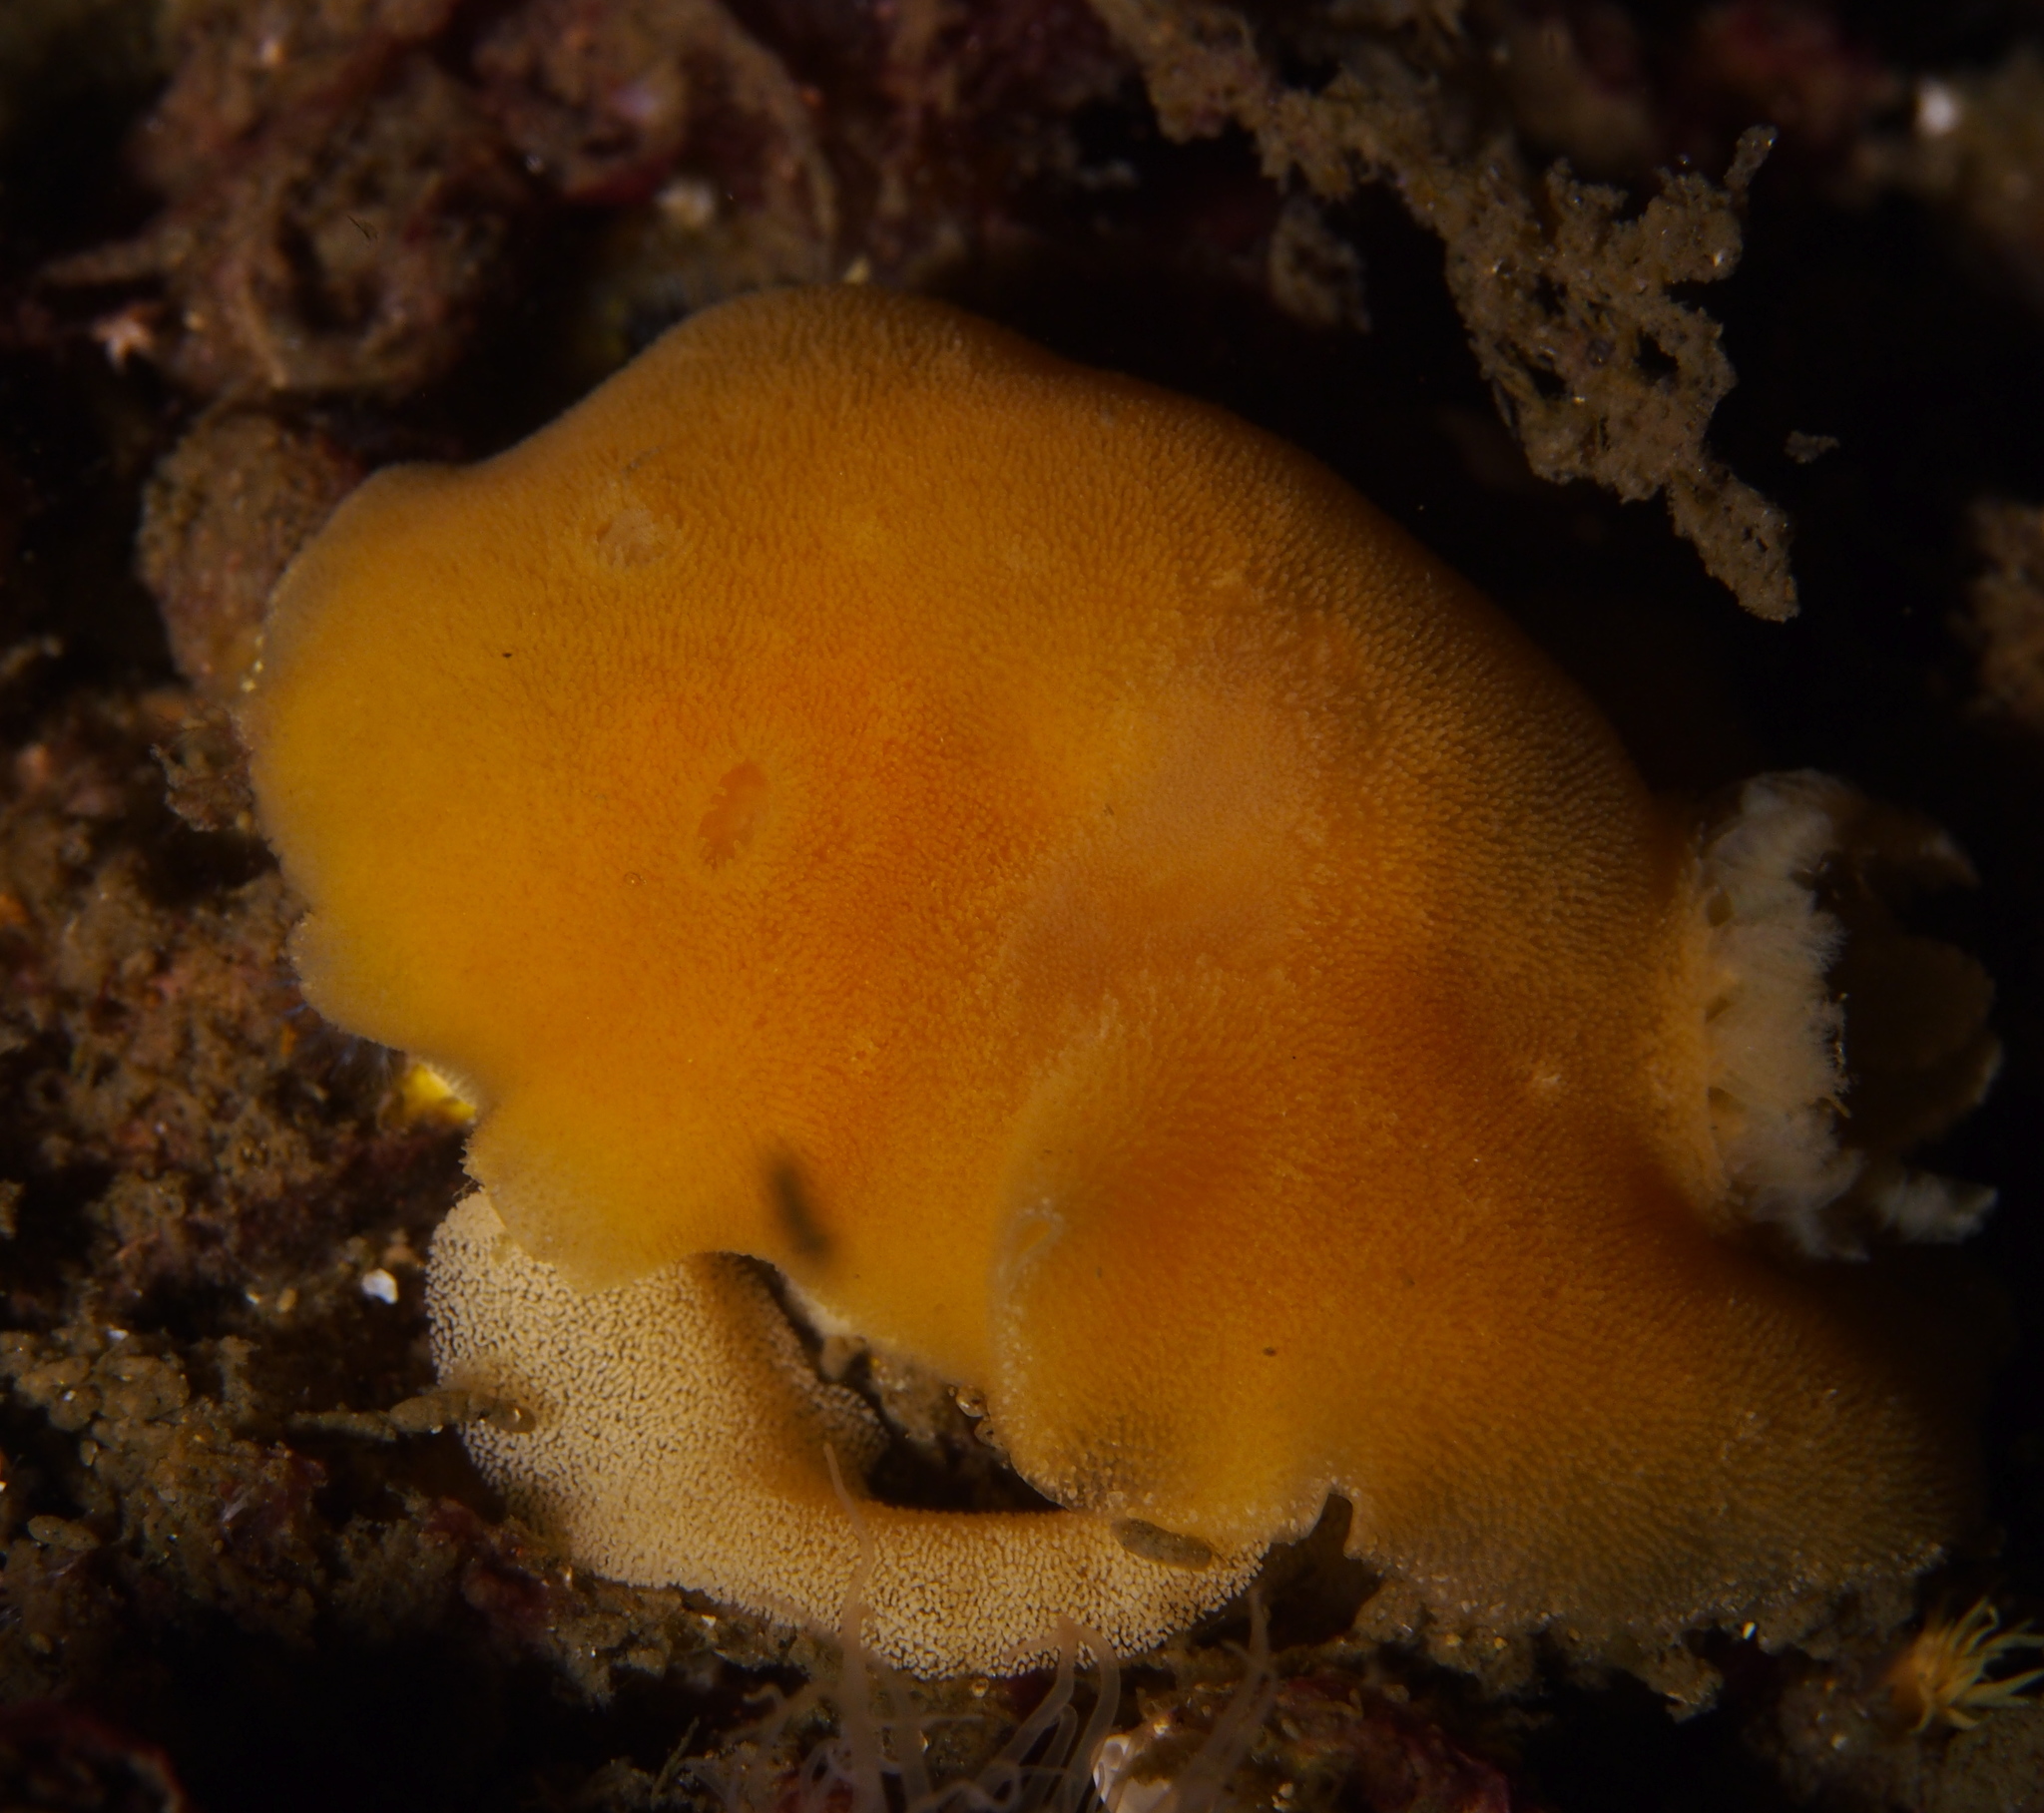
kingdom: Animalia
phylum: Mollusca
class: Gastropoda
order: Nudibranchia
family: Discodorididae
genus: Jorunna
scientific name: Jorunna tomentosa
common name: Grey sea slug
